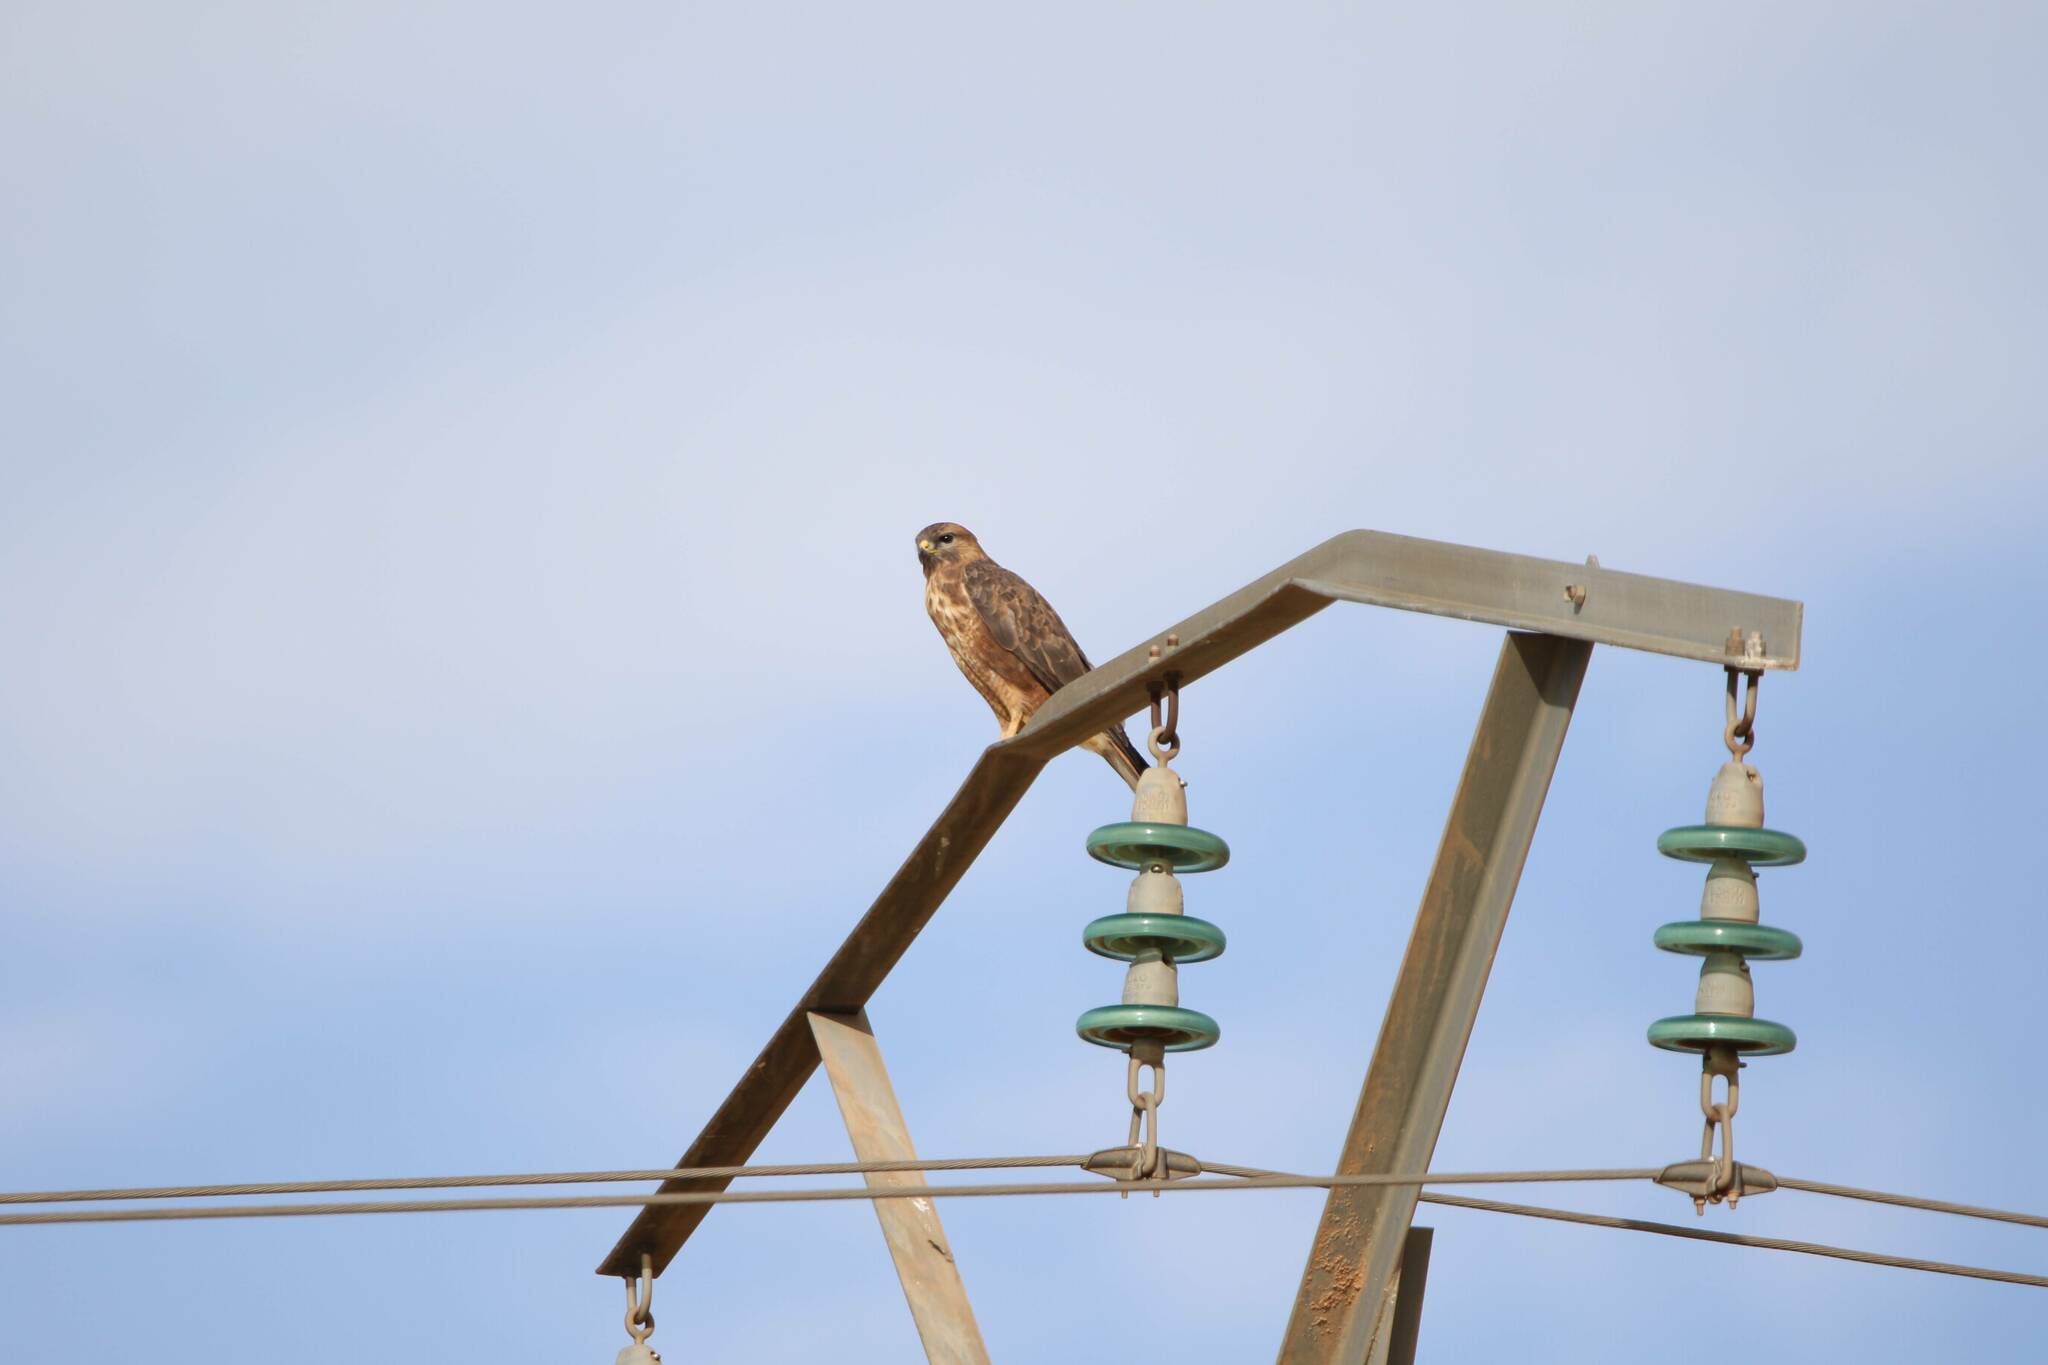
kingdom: Animalia
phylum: Chordata
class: Aves
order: Accipitriformes
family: Accipitridae
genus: Buteo
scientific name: Buteo rufinus
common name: Long-legged buzzard
